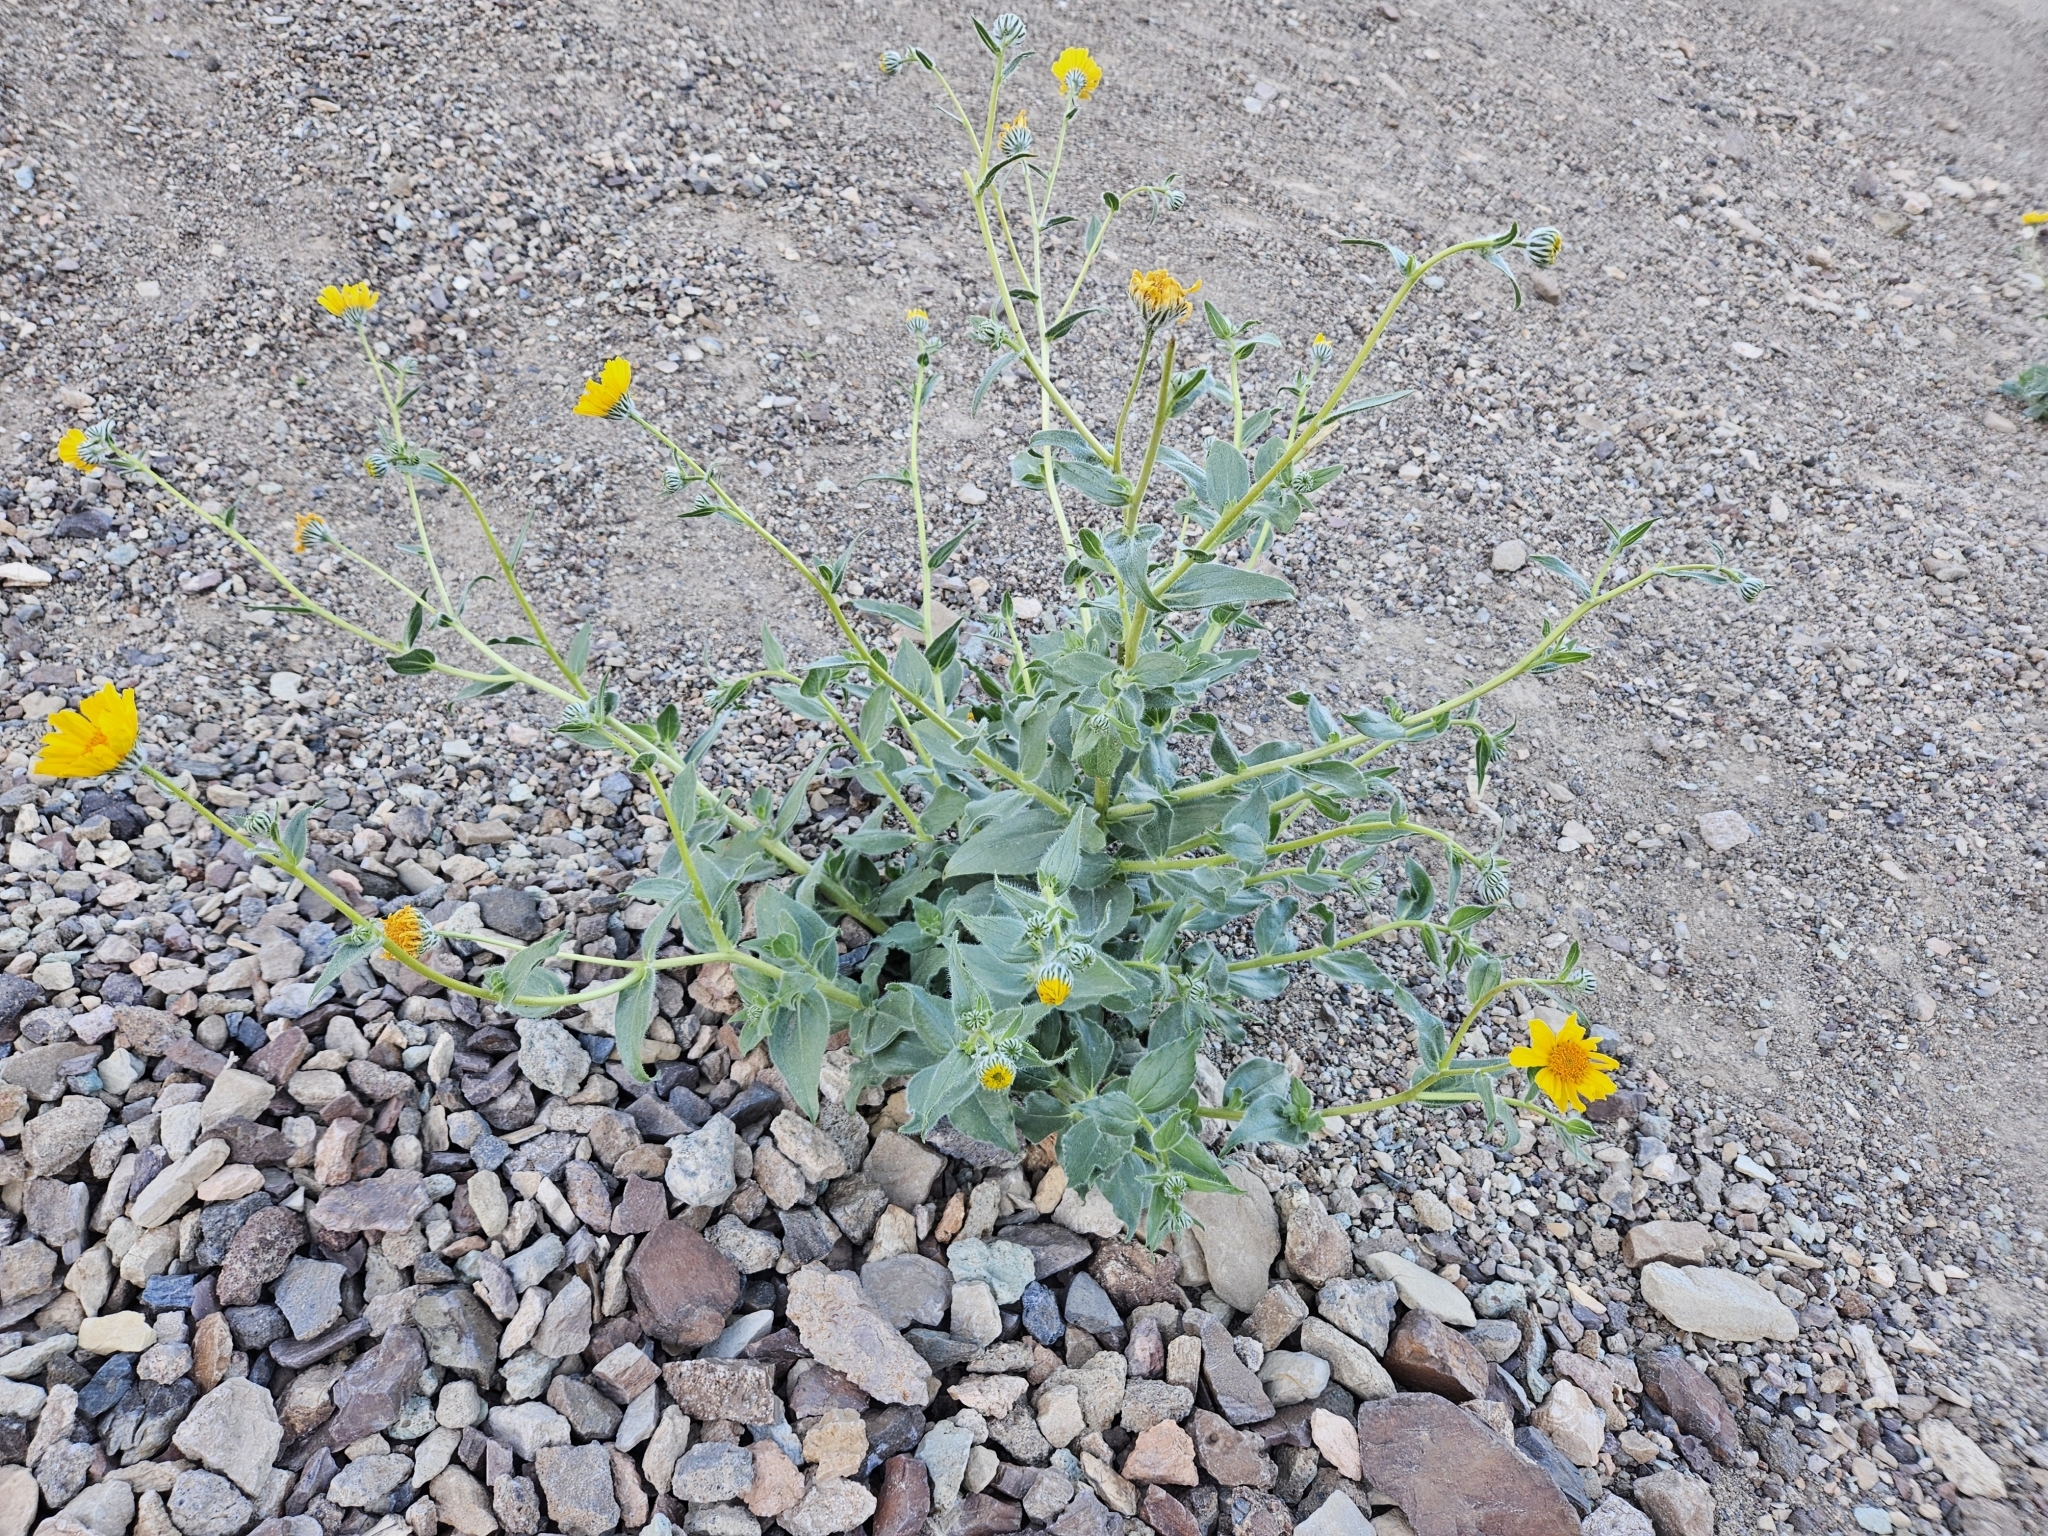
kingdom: Plantae
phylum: Tracheophyta
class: Magnoliopsida
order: Asterales
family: Asteraceae
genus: Geraea
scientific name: Geraea canescens
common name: Desert-gold
